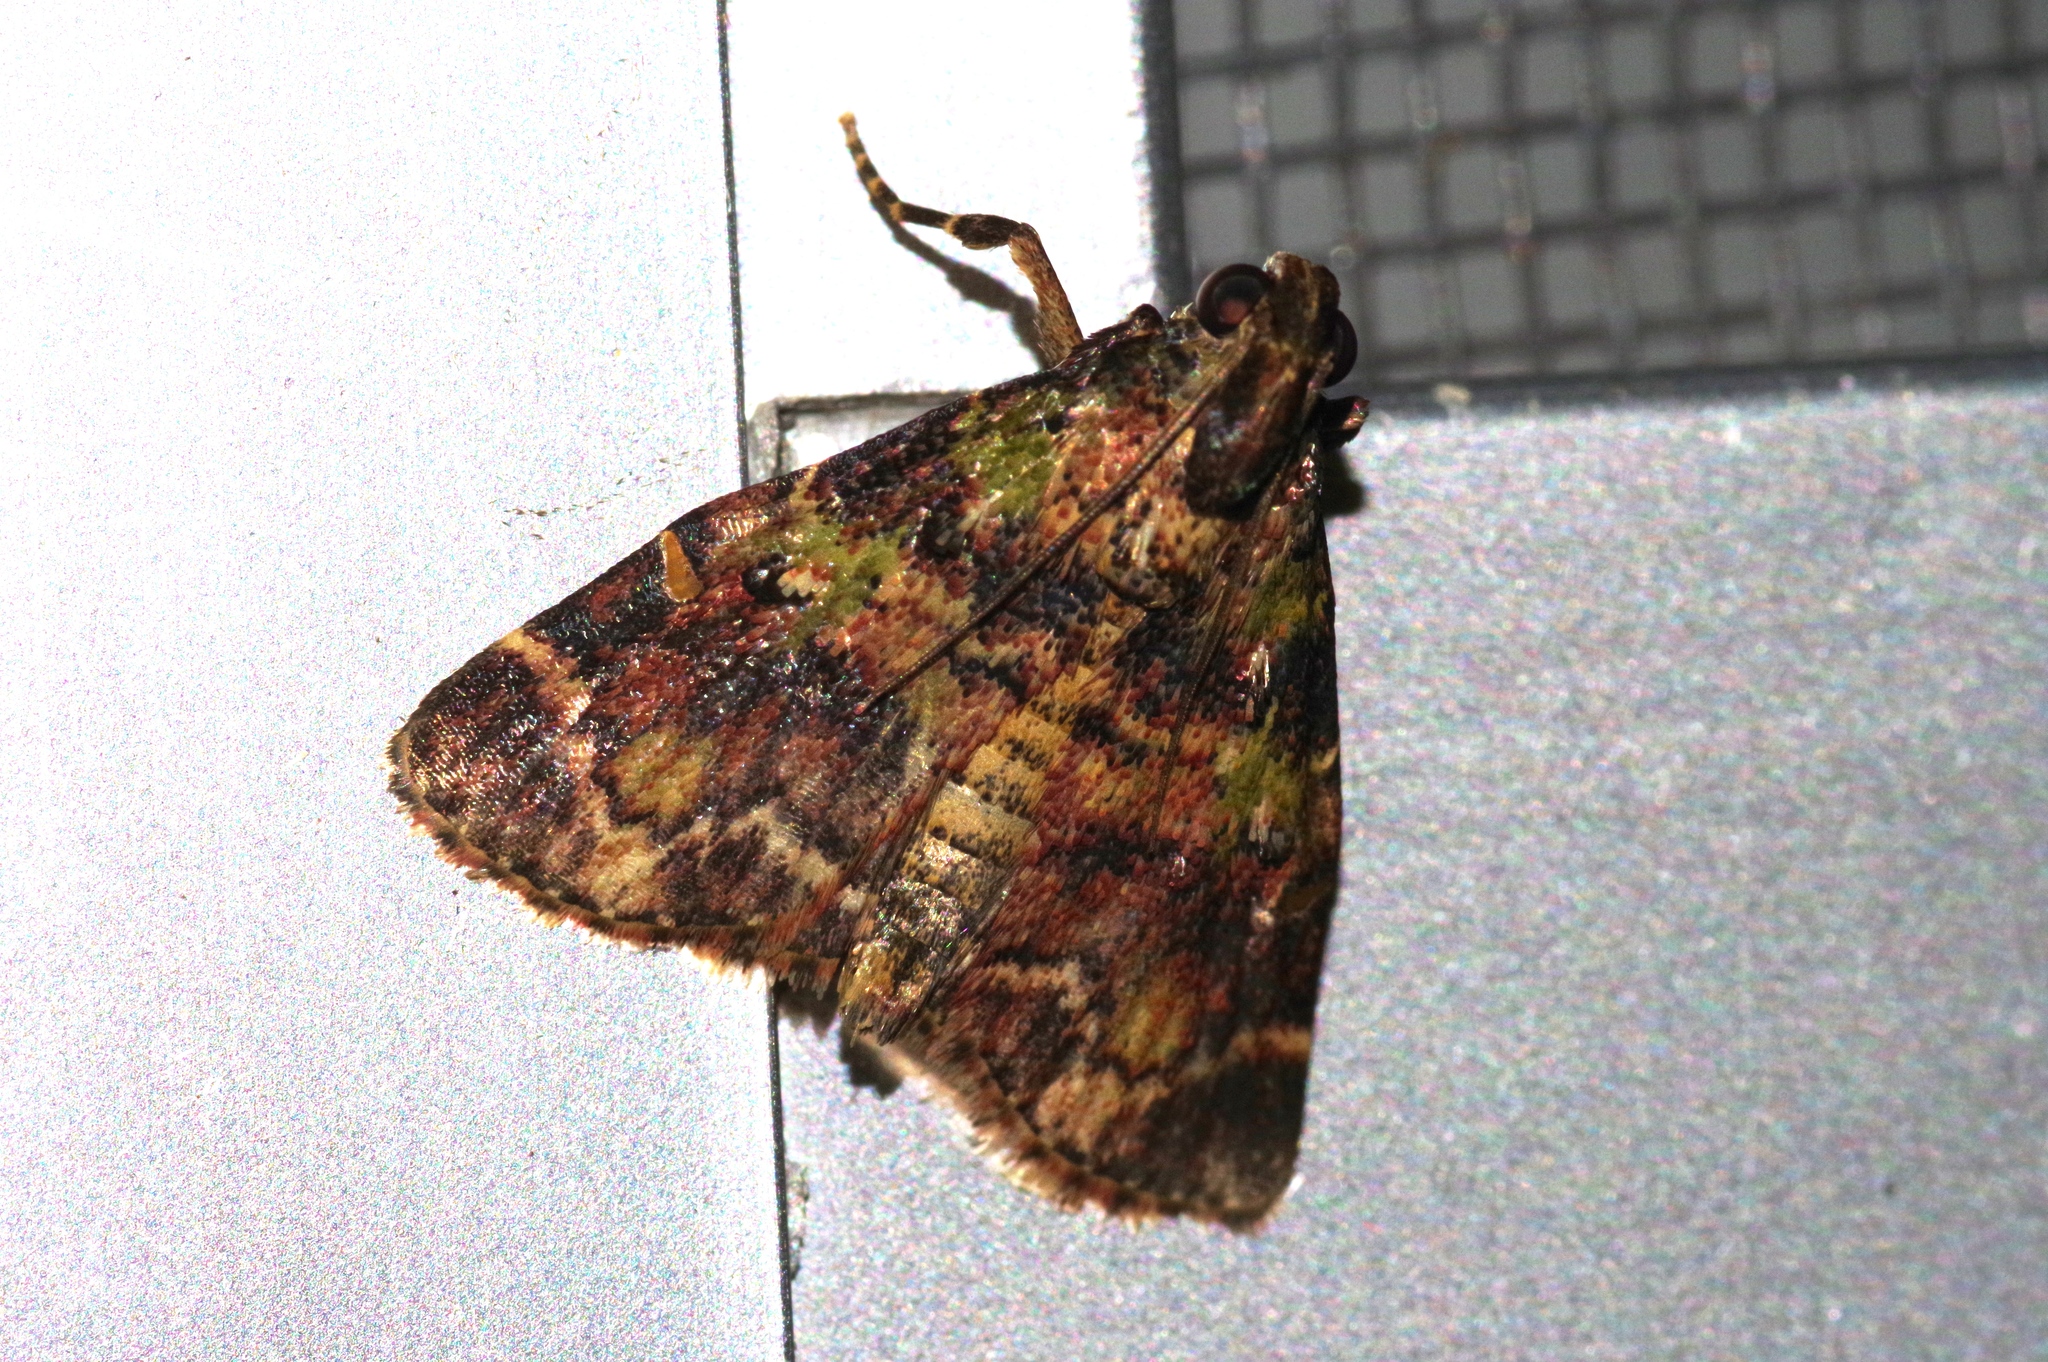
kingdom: Animalia
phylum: Arthropoda
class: Insecta
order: Lepidoptera
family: Pyralidae
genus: Orthaga
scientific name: Orthaga olivacea
